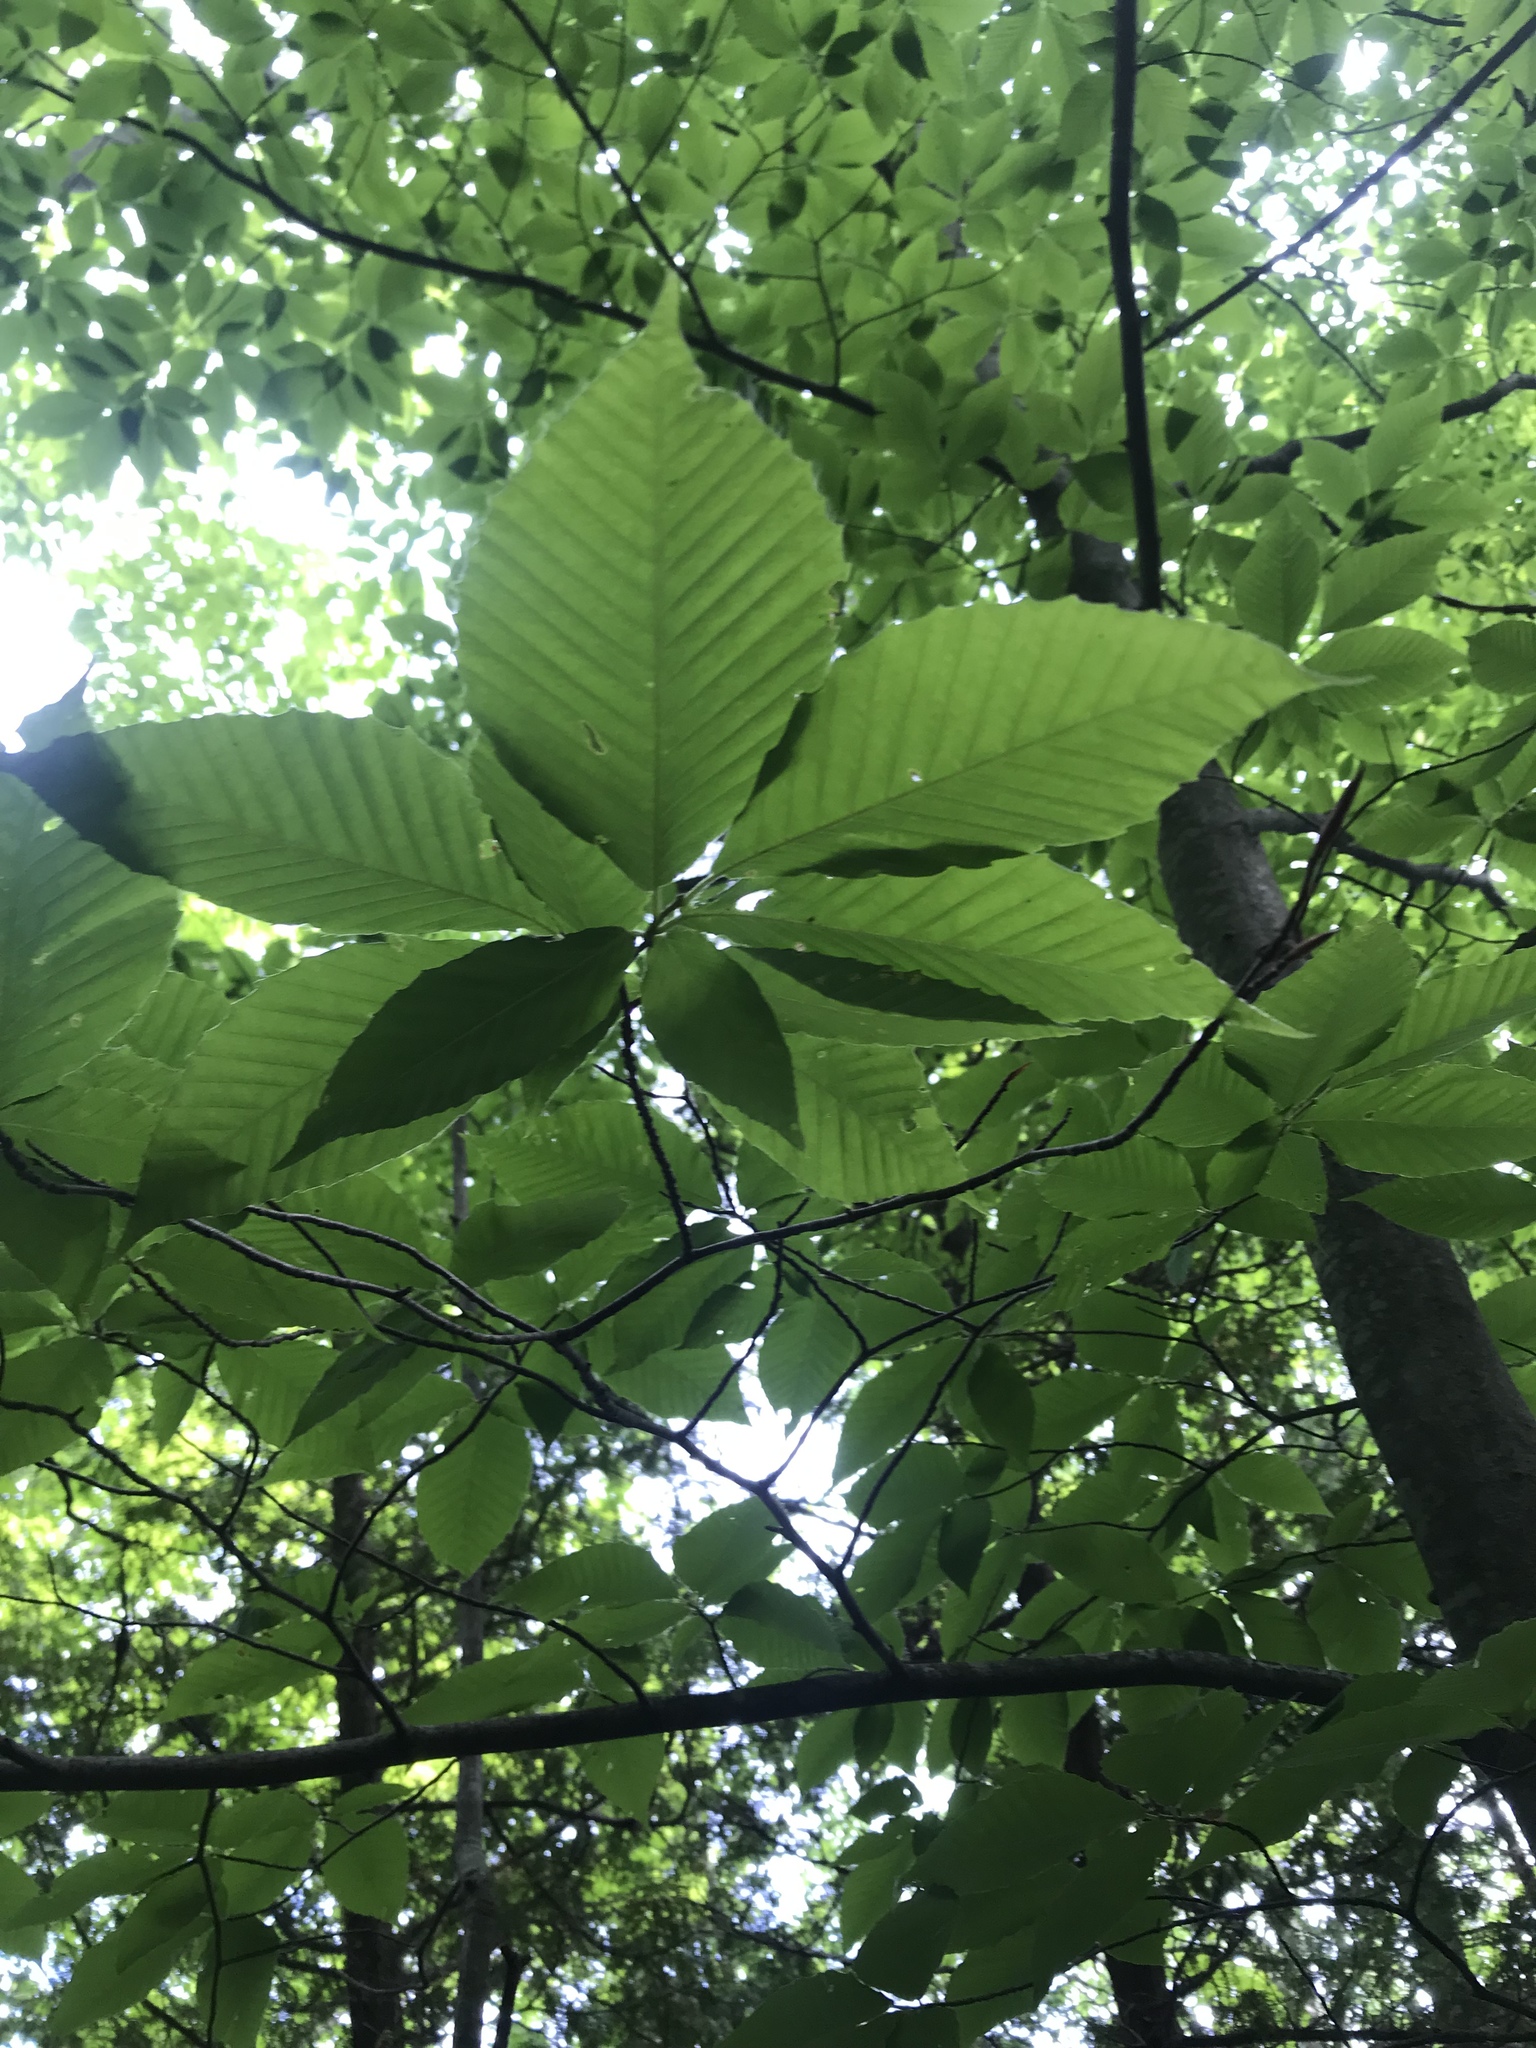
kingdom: Plantae
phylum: Tracheophyta
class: Magnoliopsida
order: Fagales
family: Fagaceae
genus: Fagus
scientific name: Fagus grandifolia
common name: American beech
